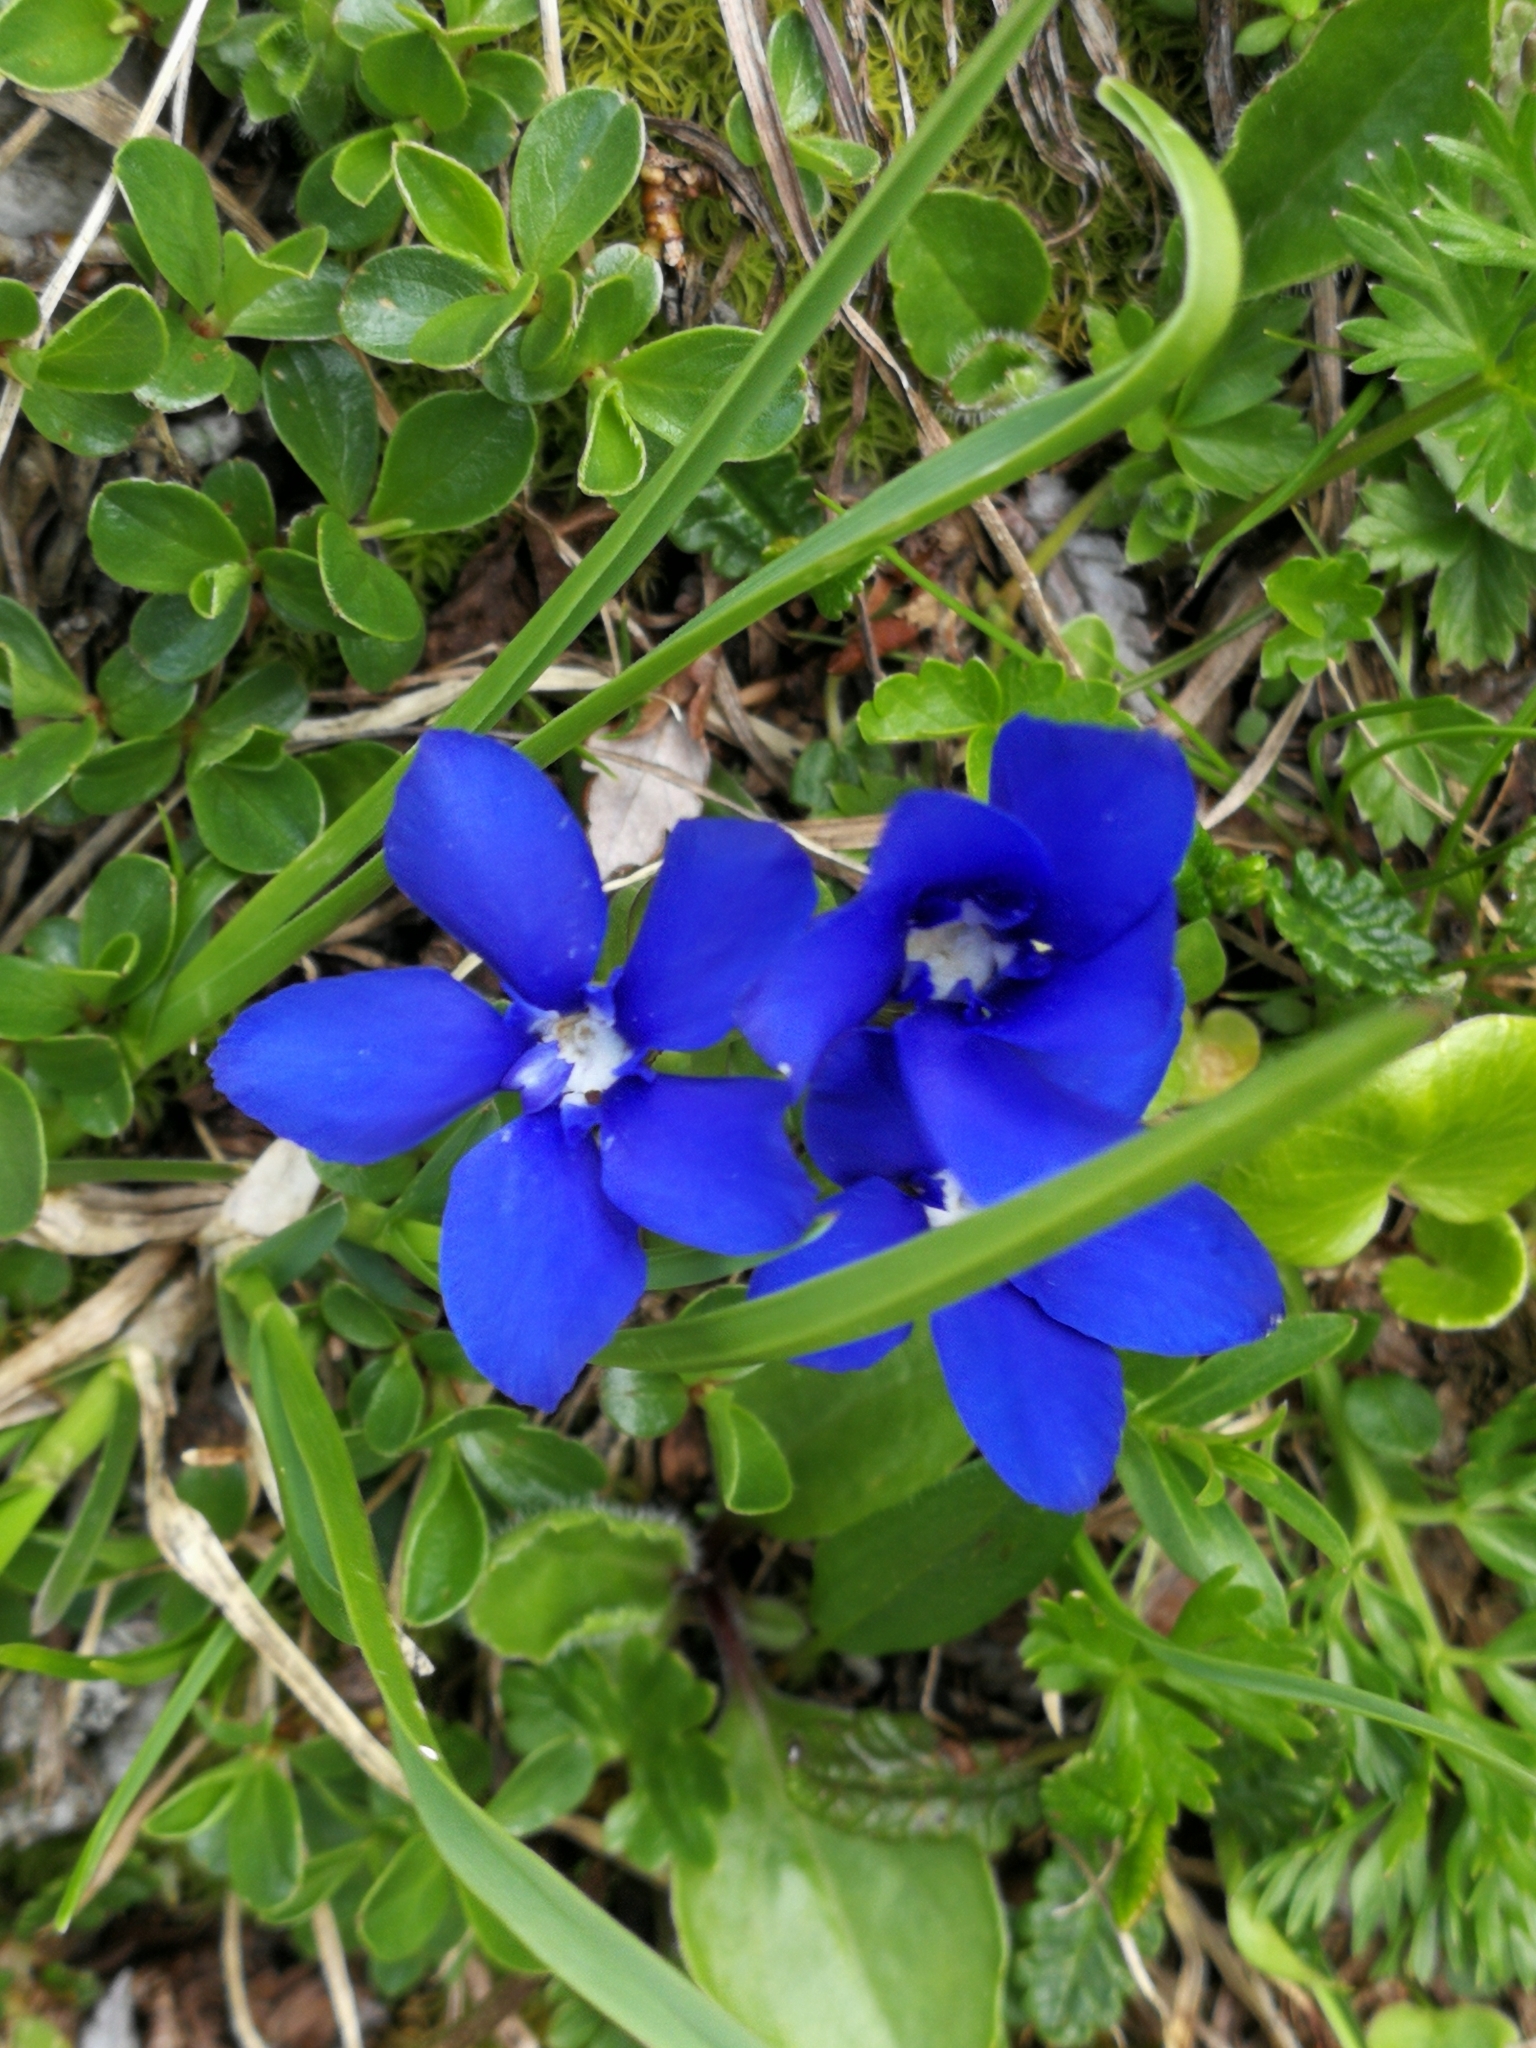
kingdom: Plantae
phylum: Tracheophyta
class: Magnoliopsida
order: Gentianales
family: Gentianaceae
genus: Gentiana
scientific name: Gentiana
